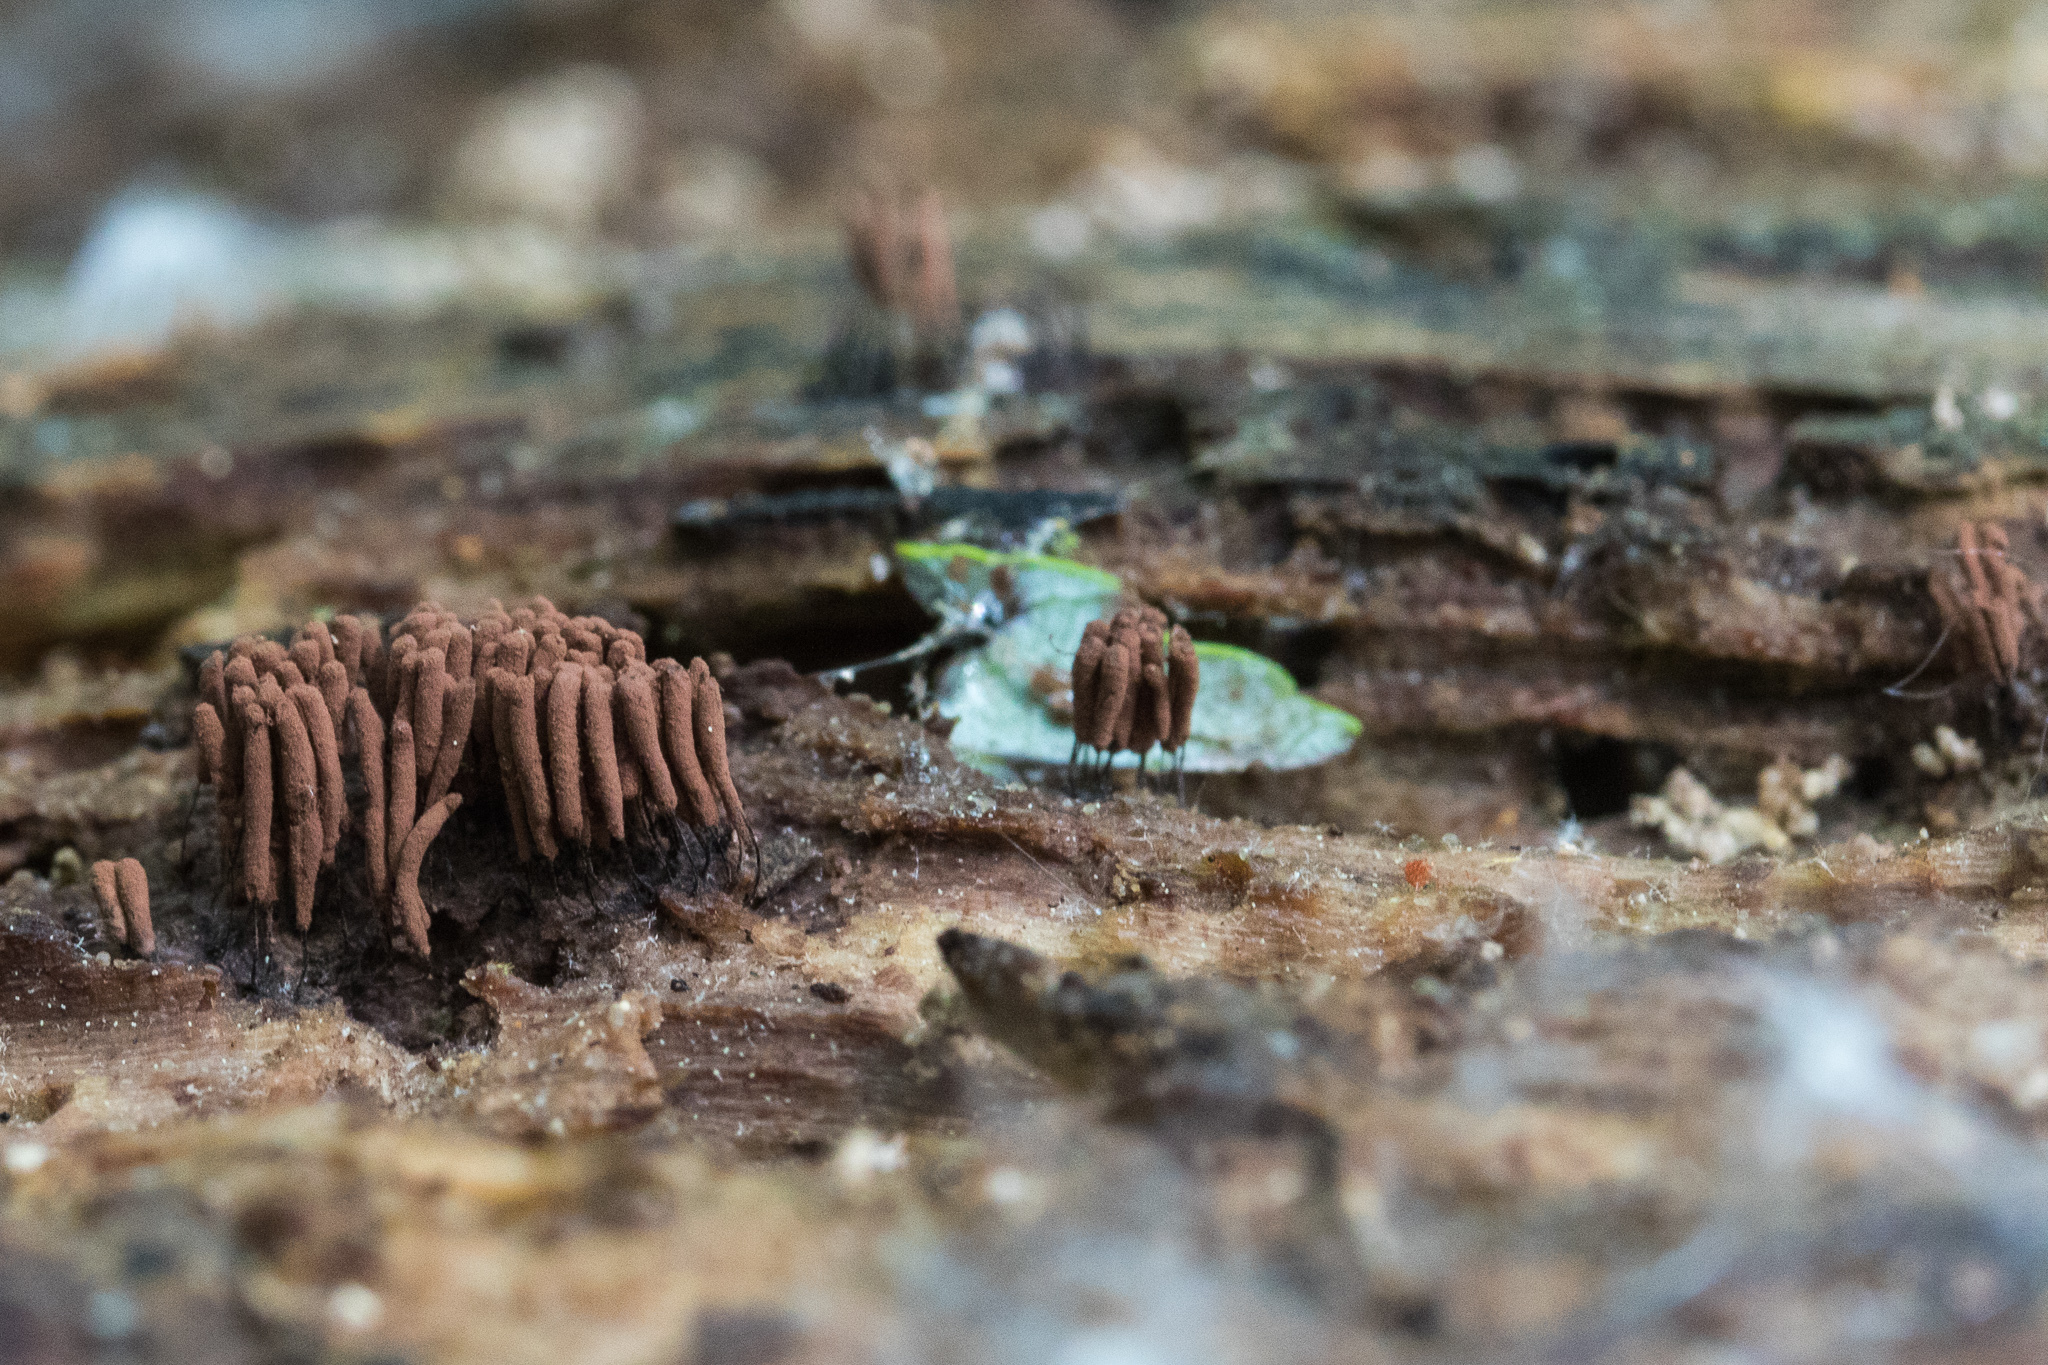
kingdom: Protozoa
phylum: Mycetozoa
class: Myxomycetes
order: Stemonitidales
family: Stemonitidaceae
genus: Stemonitis
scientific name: Stemonitis splendens
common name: Chocolate tube slime
